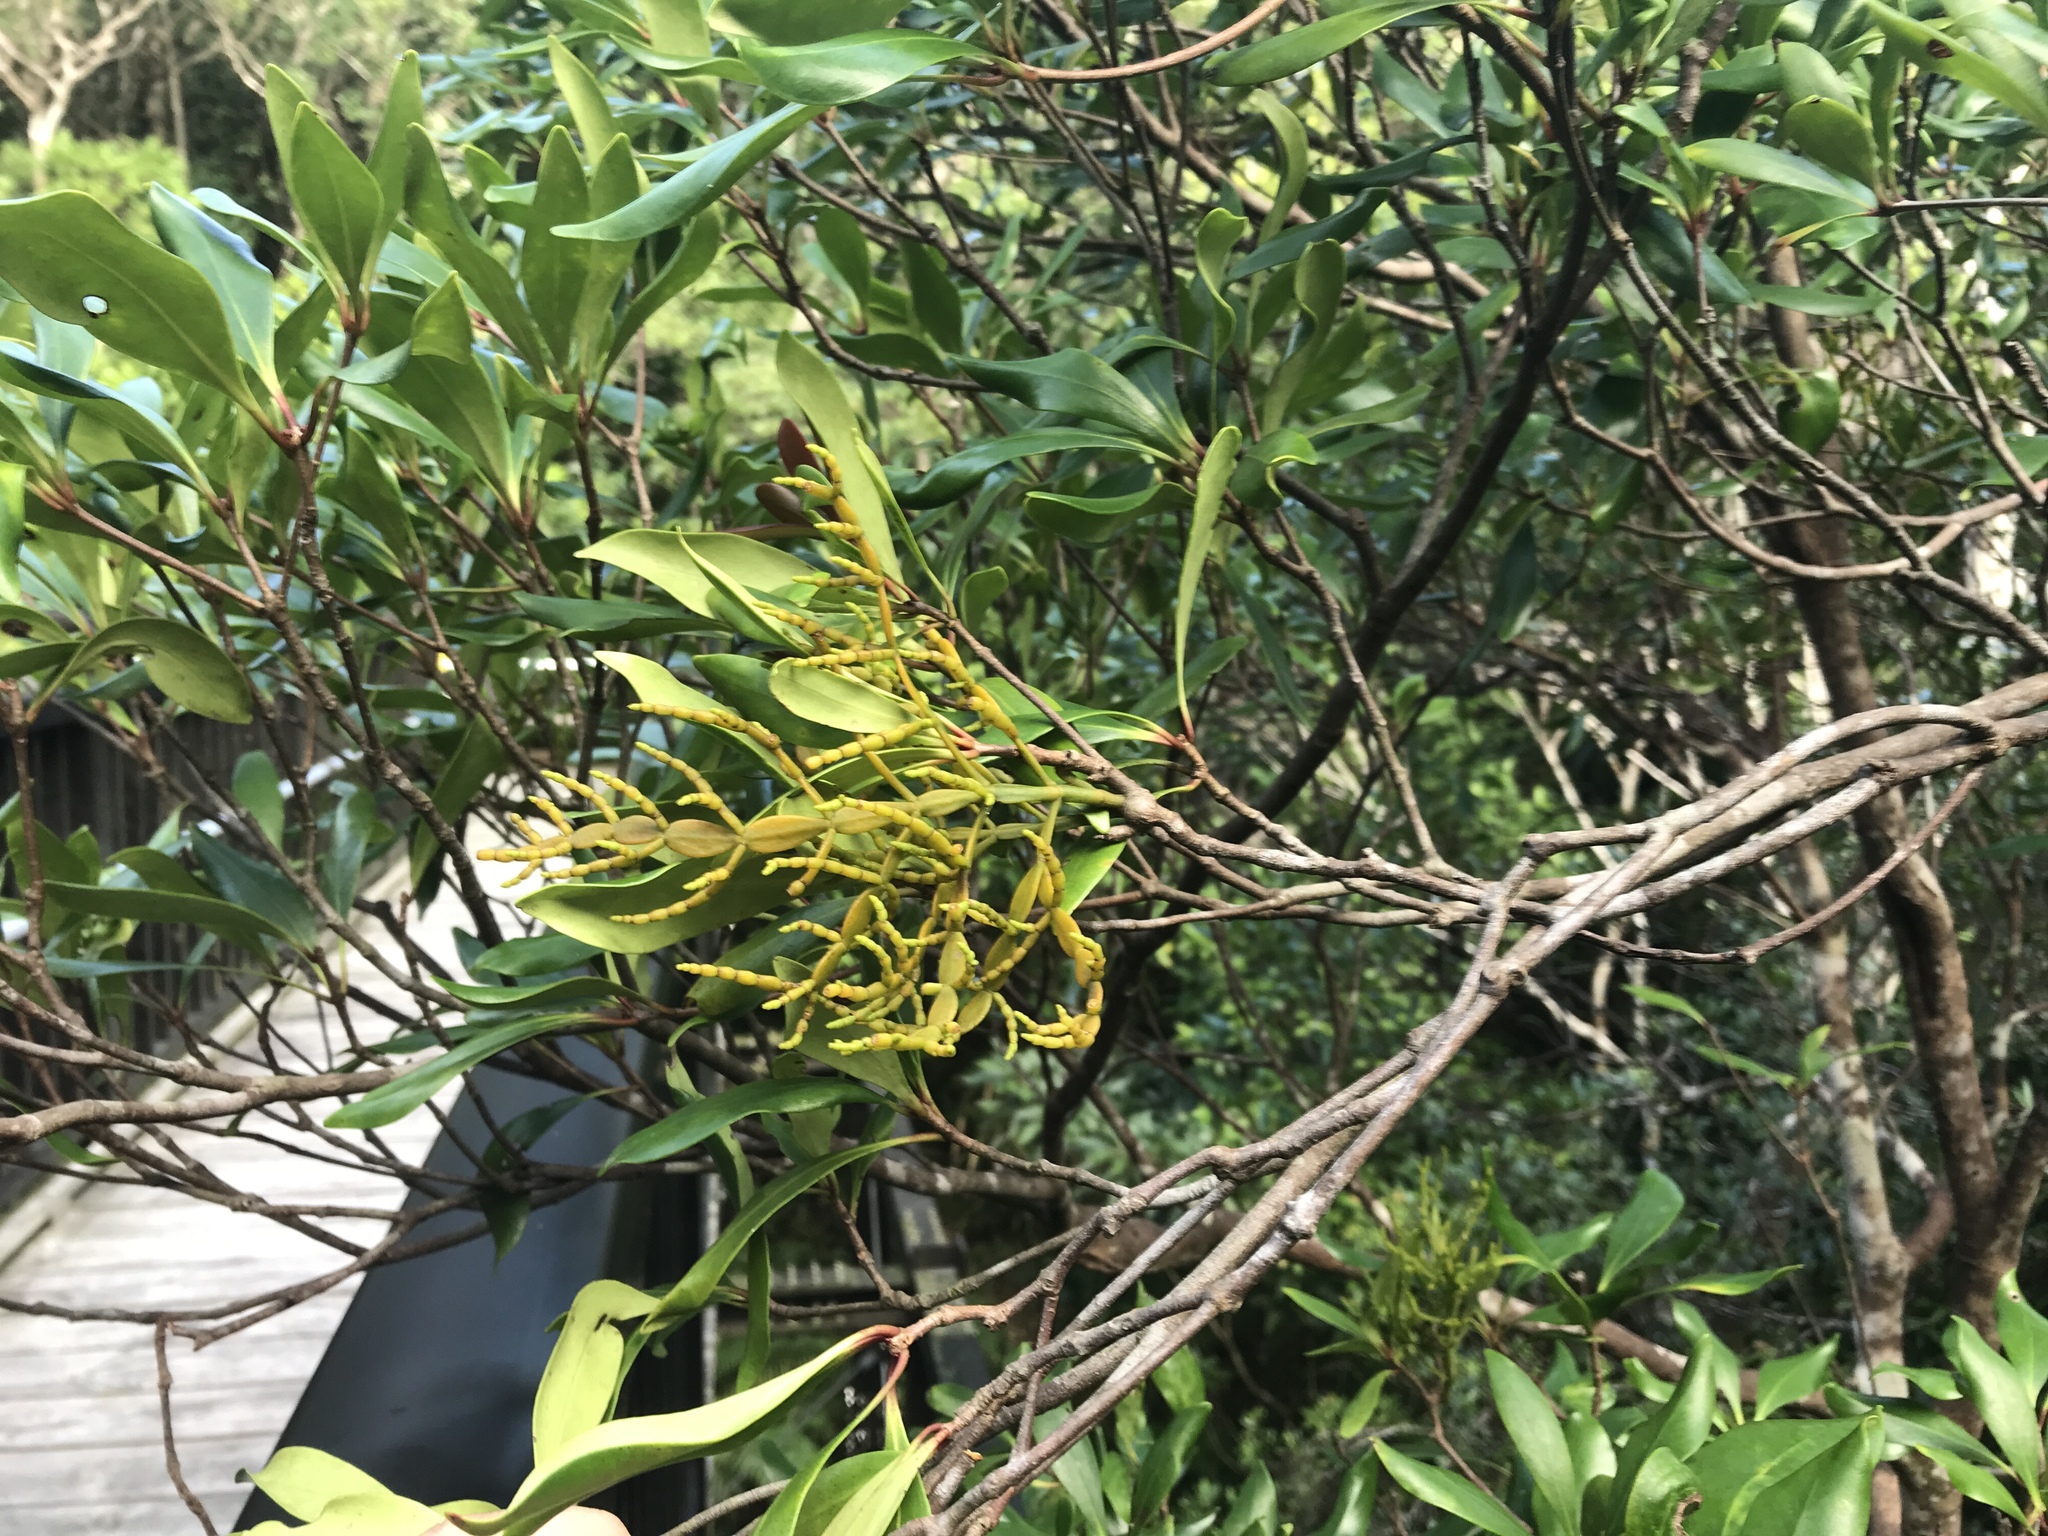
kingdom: Plantae
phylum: Tracheophyta
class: Magnoliopsida
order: Santalales
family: Viscaceae
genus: Korthalsella
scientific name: Korthalsella japonica
